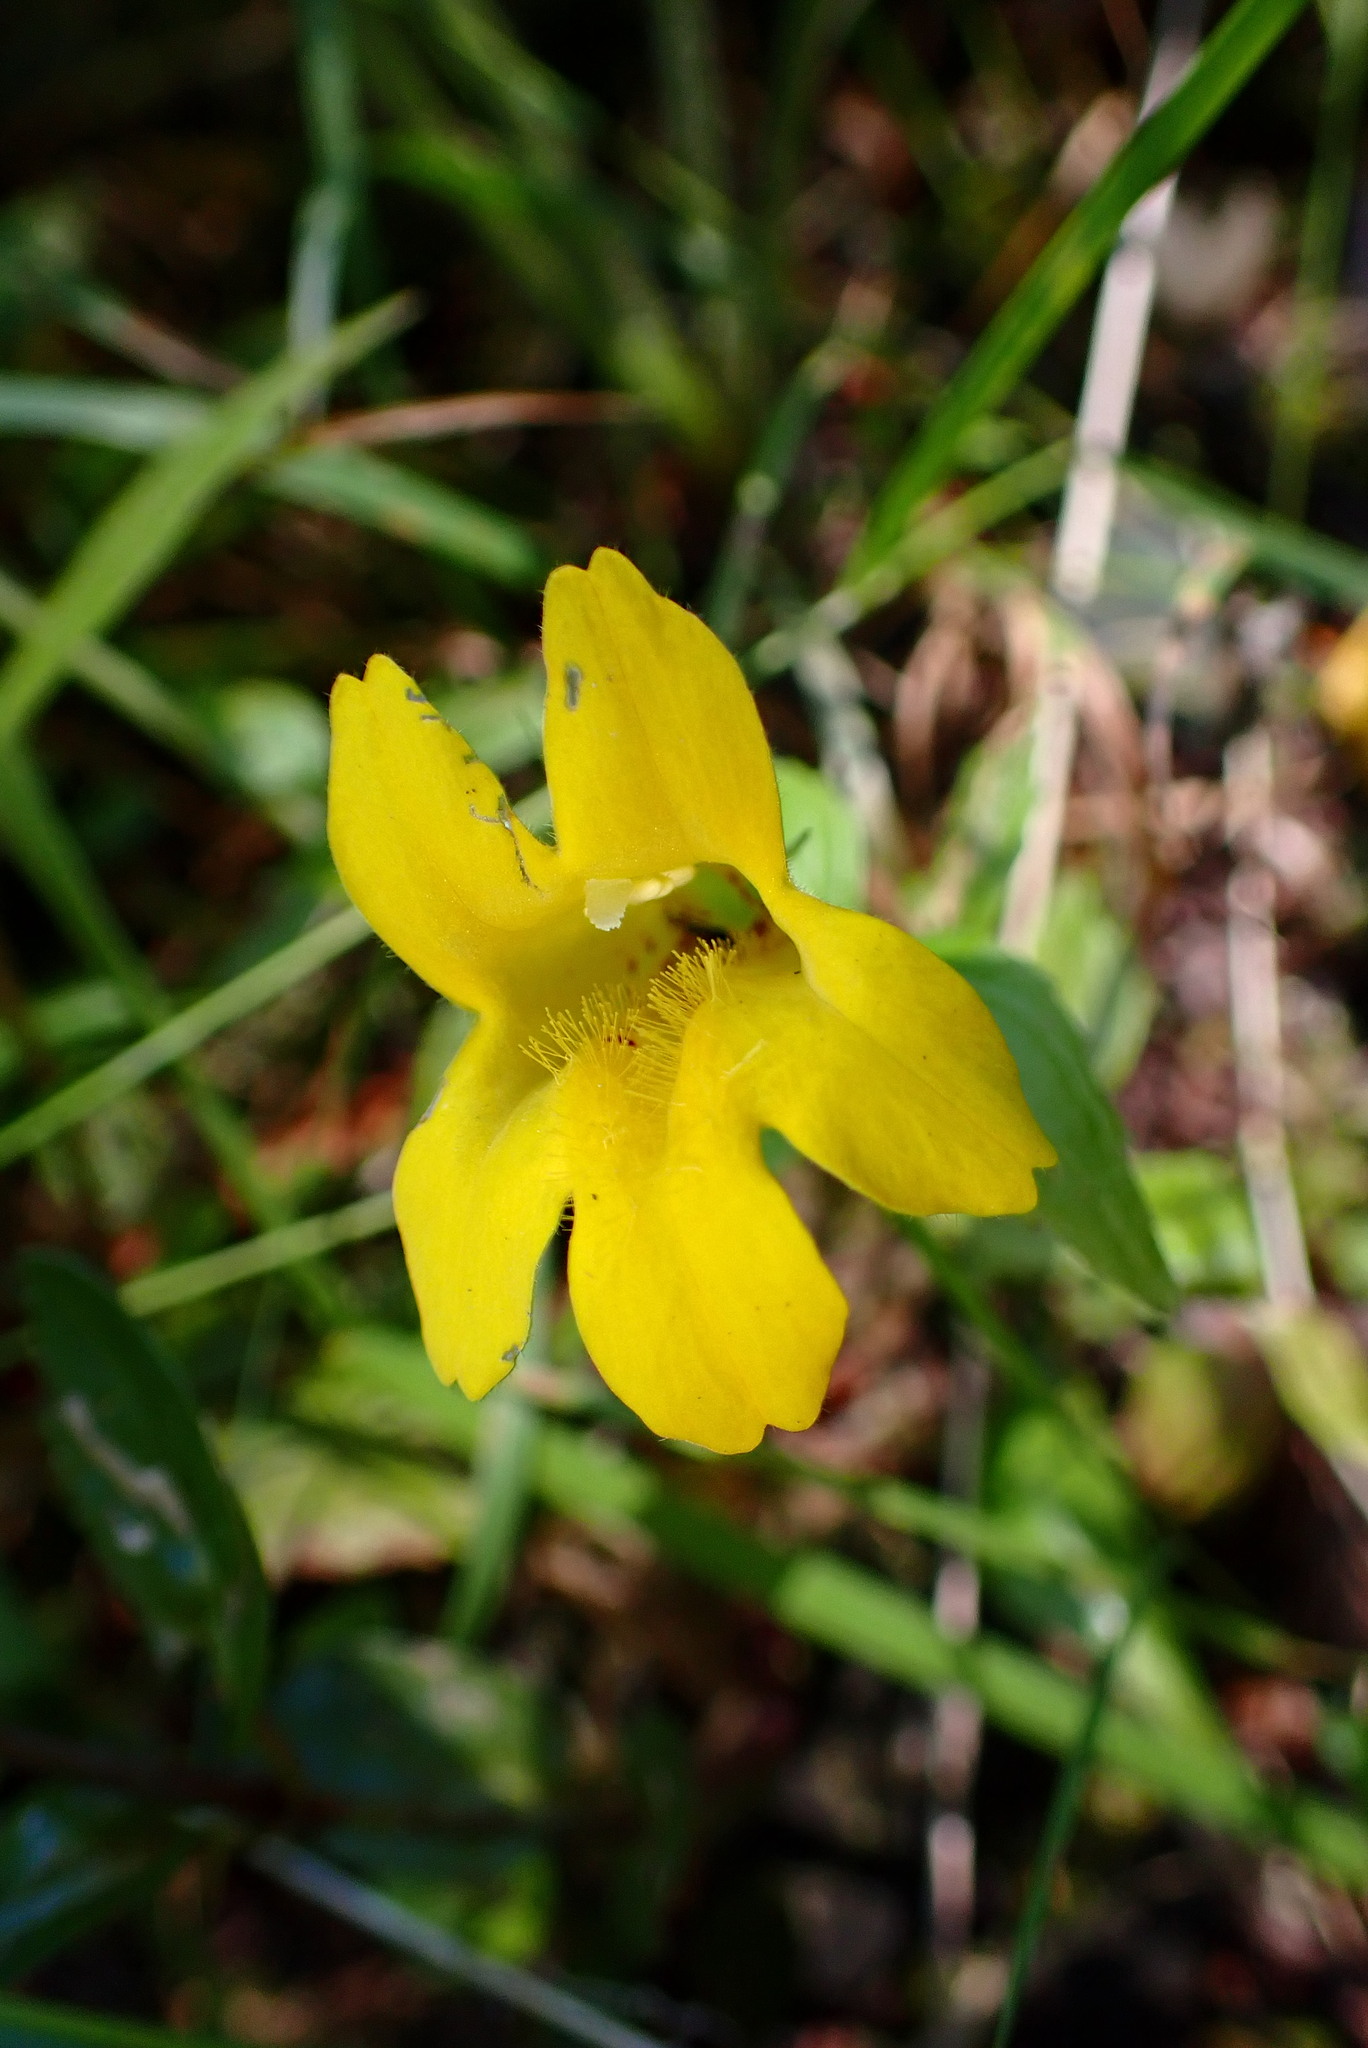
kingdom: Plantae
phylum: Tracheophyta
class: Magnoliopsida
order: Lamiales
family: Phrymaceae
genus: Erythranthe
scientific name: Erythranthe dentata
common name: Coastal monkeyflower
